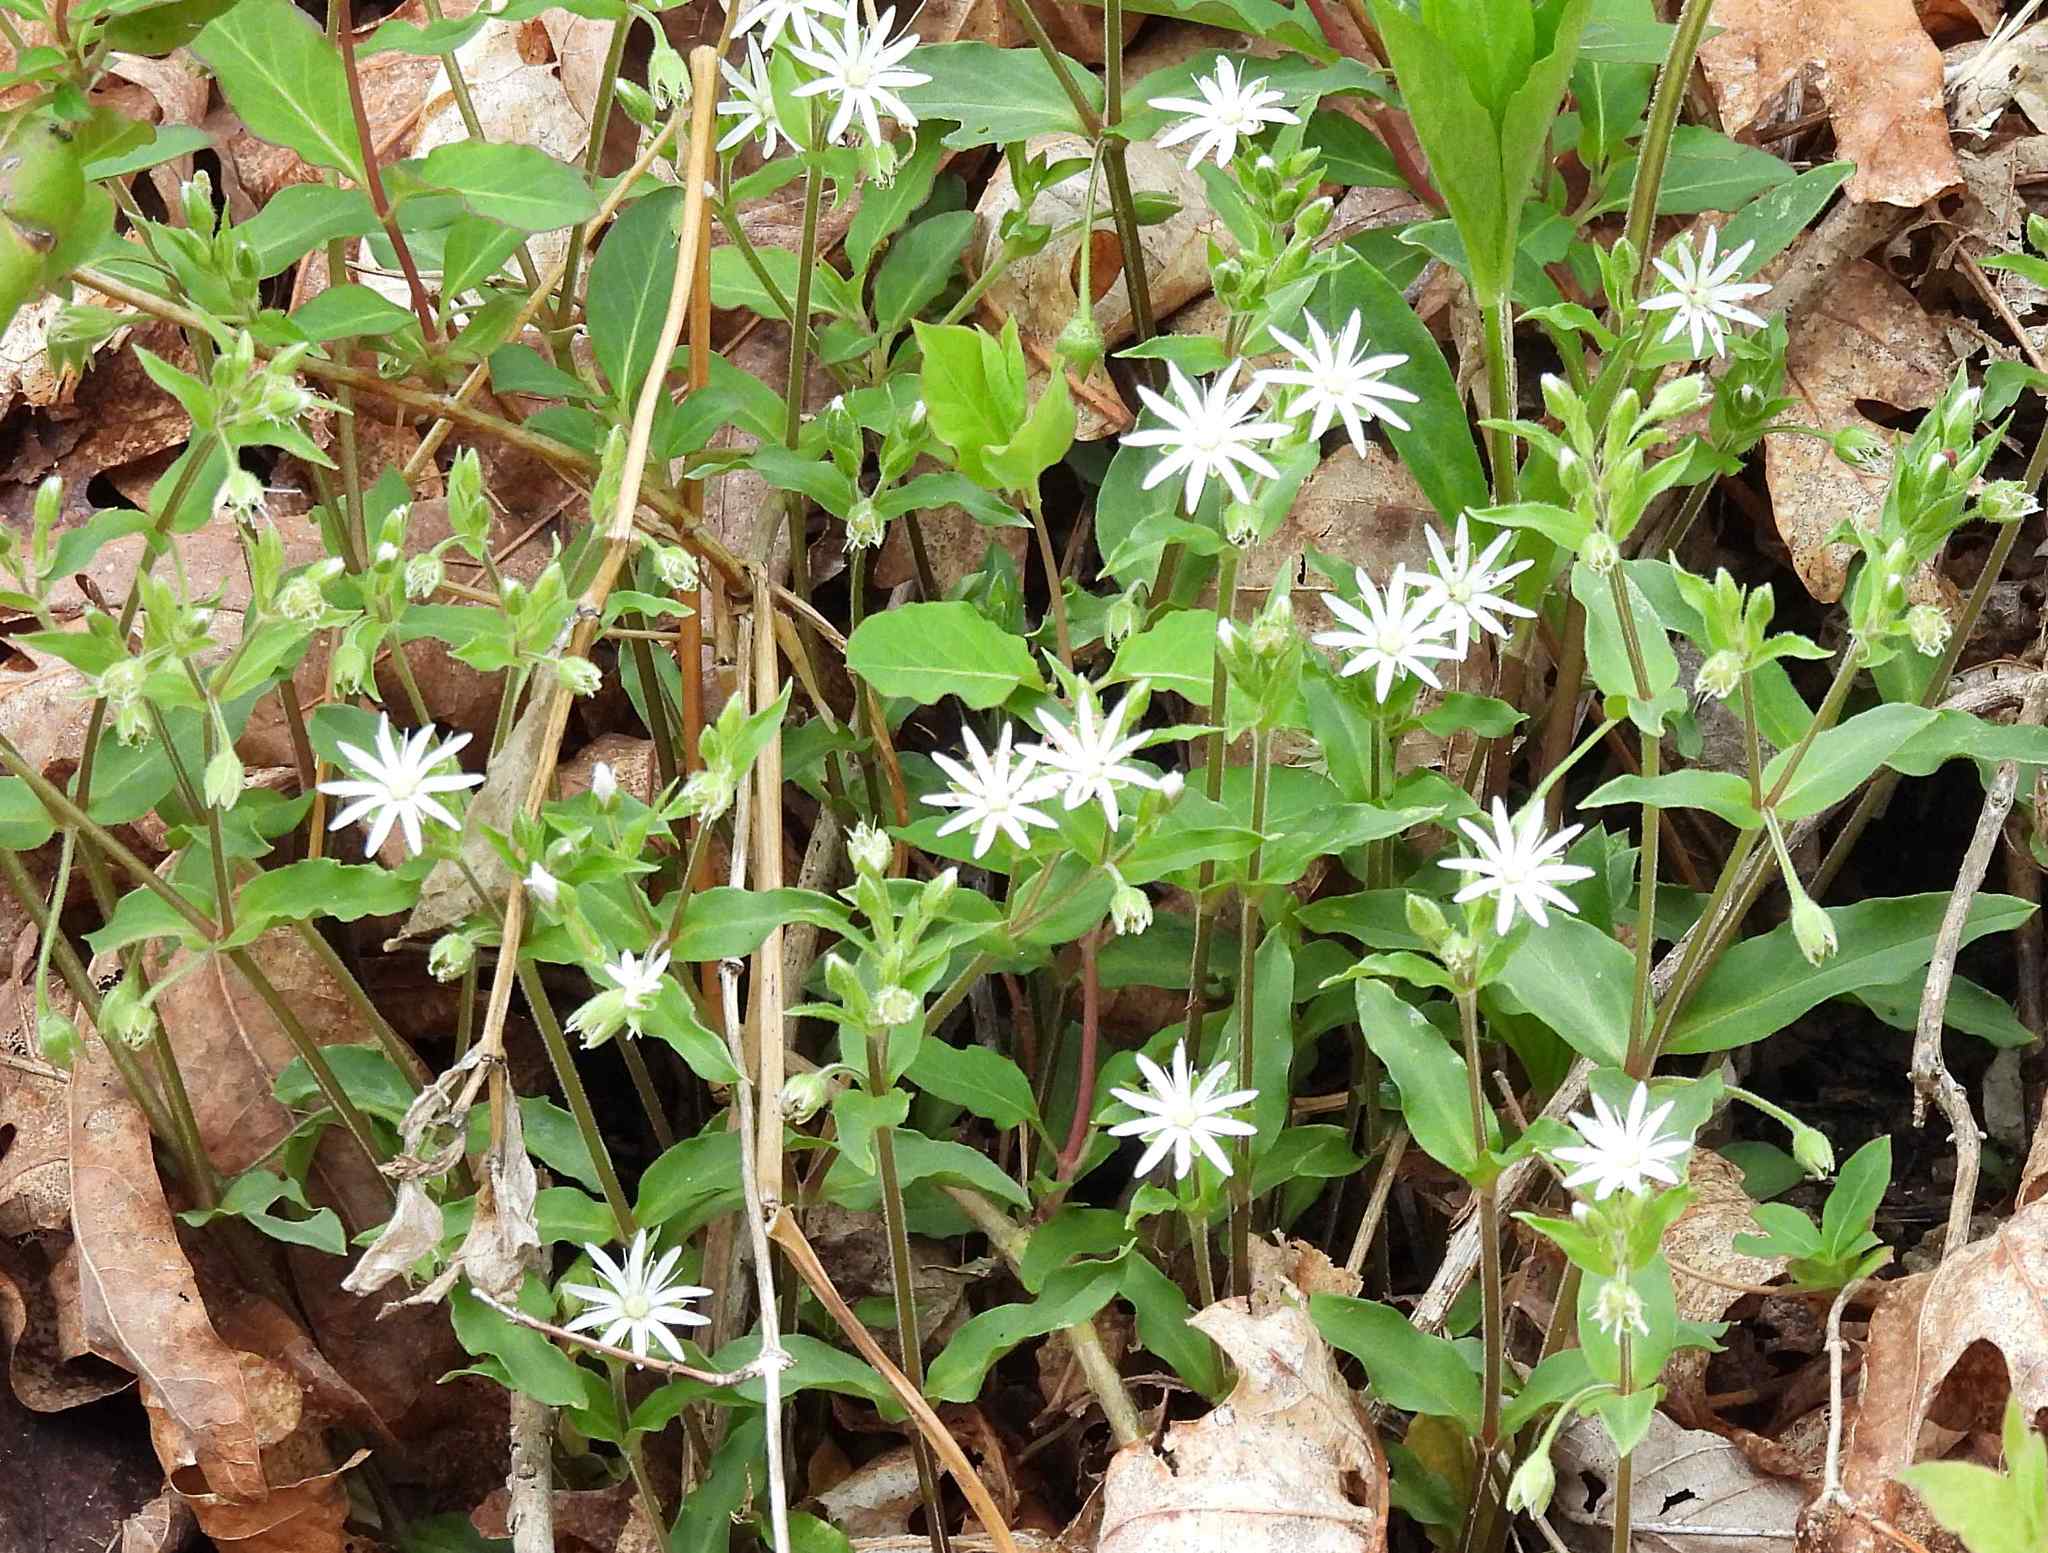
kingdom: Plantae
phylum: Tracheophyta
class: Magnoliopsida
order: Caryophyllales
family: Caryophyllaceae
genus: Stellaria
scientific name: Stellaria pubera
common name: Star chickweed
